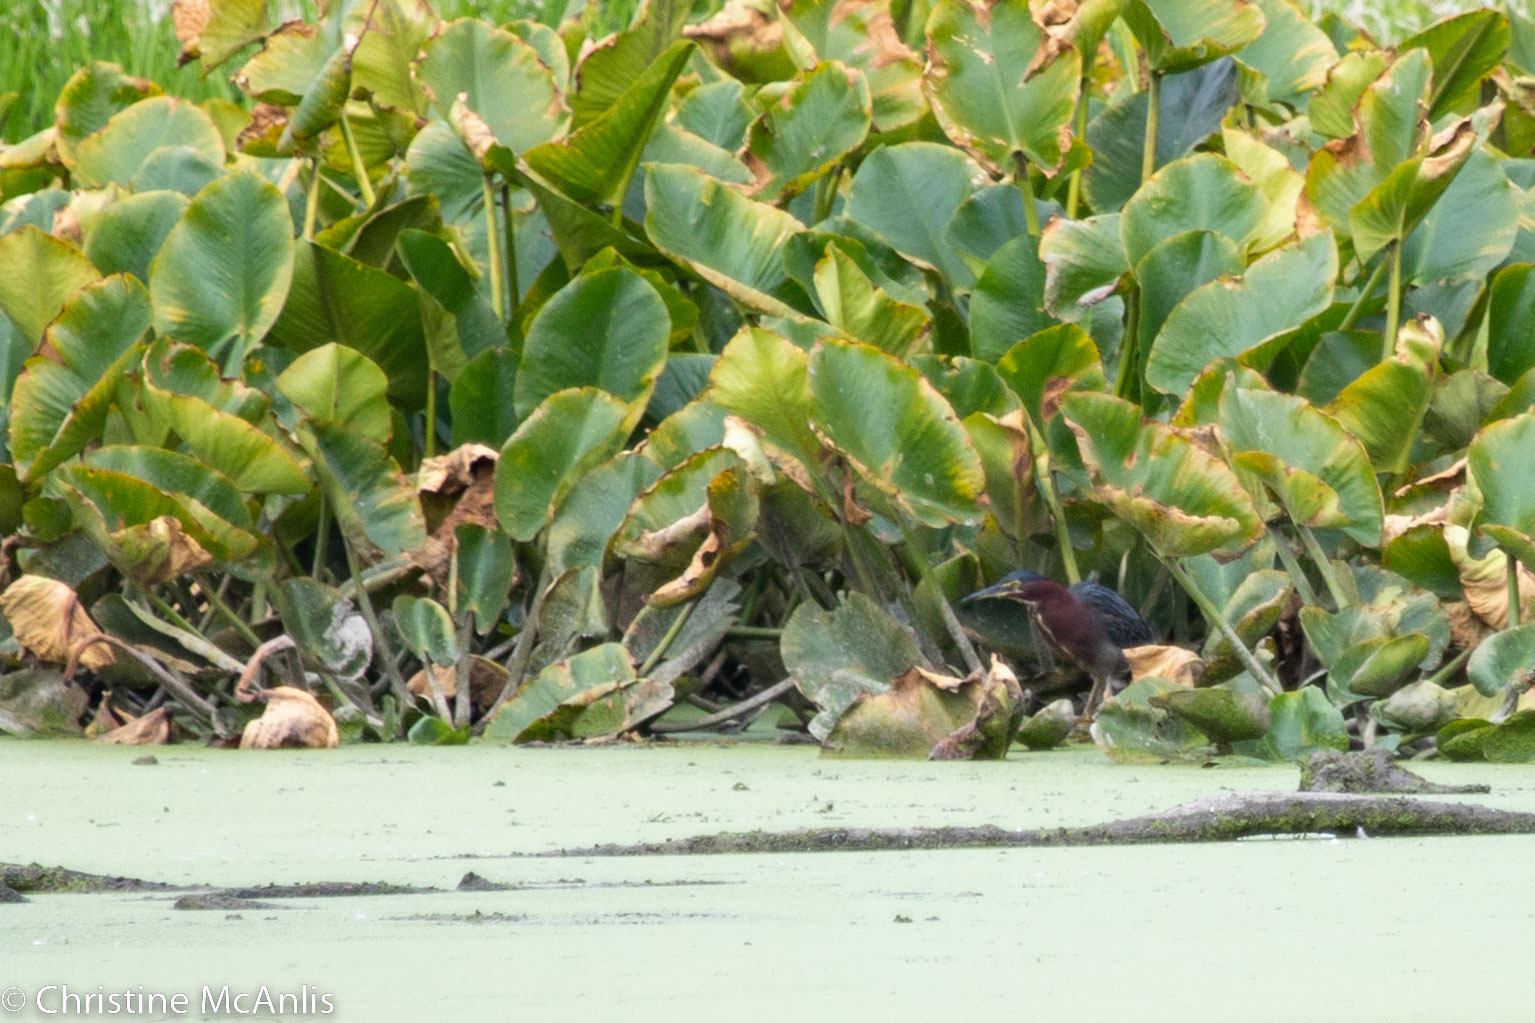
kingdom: Animalia
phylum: Chordata
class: Aves
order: Pelecaniformes
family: Ardeidae
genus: Butorides
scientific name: Butorides virescens
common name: Green heron
